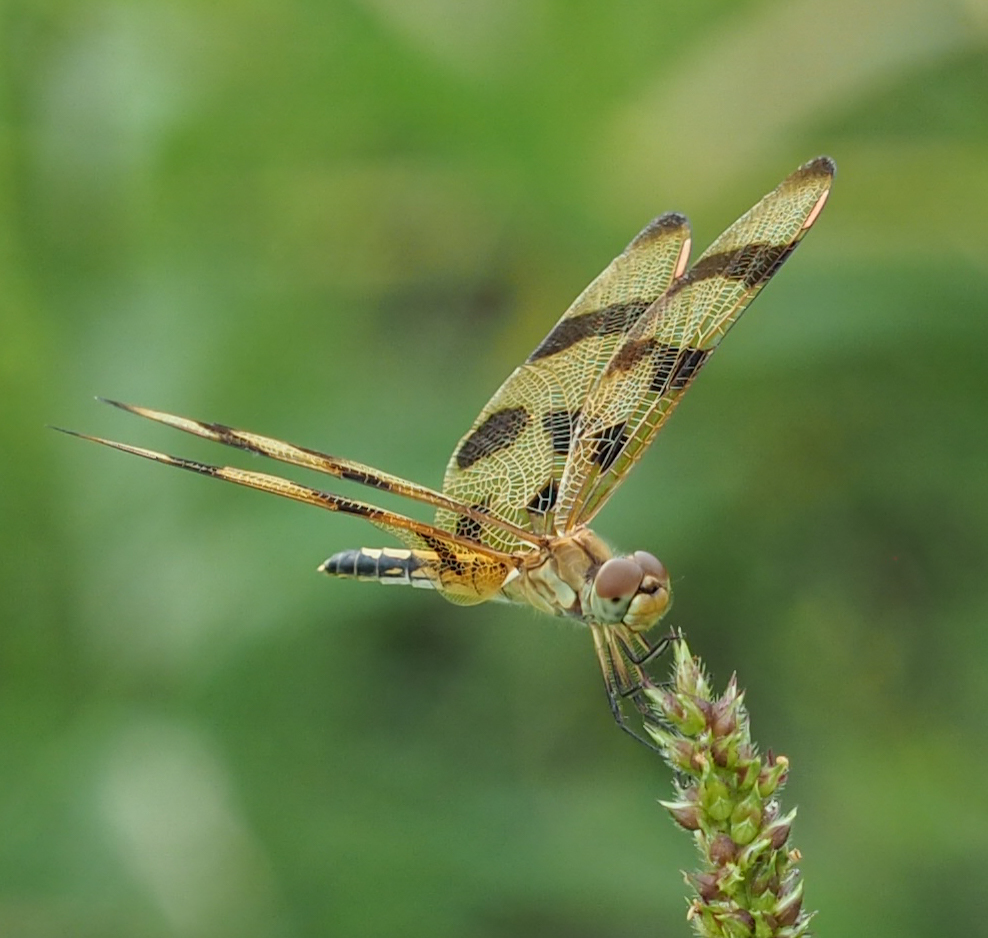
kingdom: Animalia
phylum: Arthropoda
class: Insecta
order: Odonata
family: Libellulidae
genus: Celithemis
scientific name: Celithemis eponina
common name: Halloween pennant
